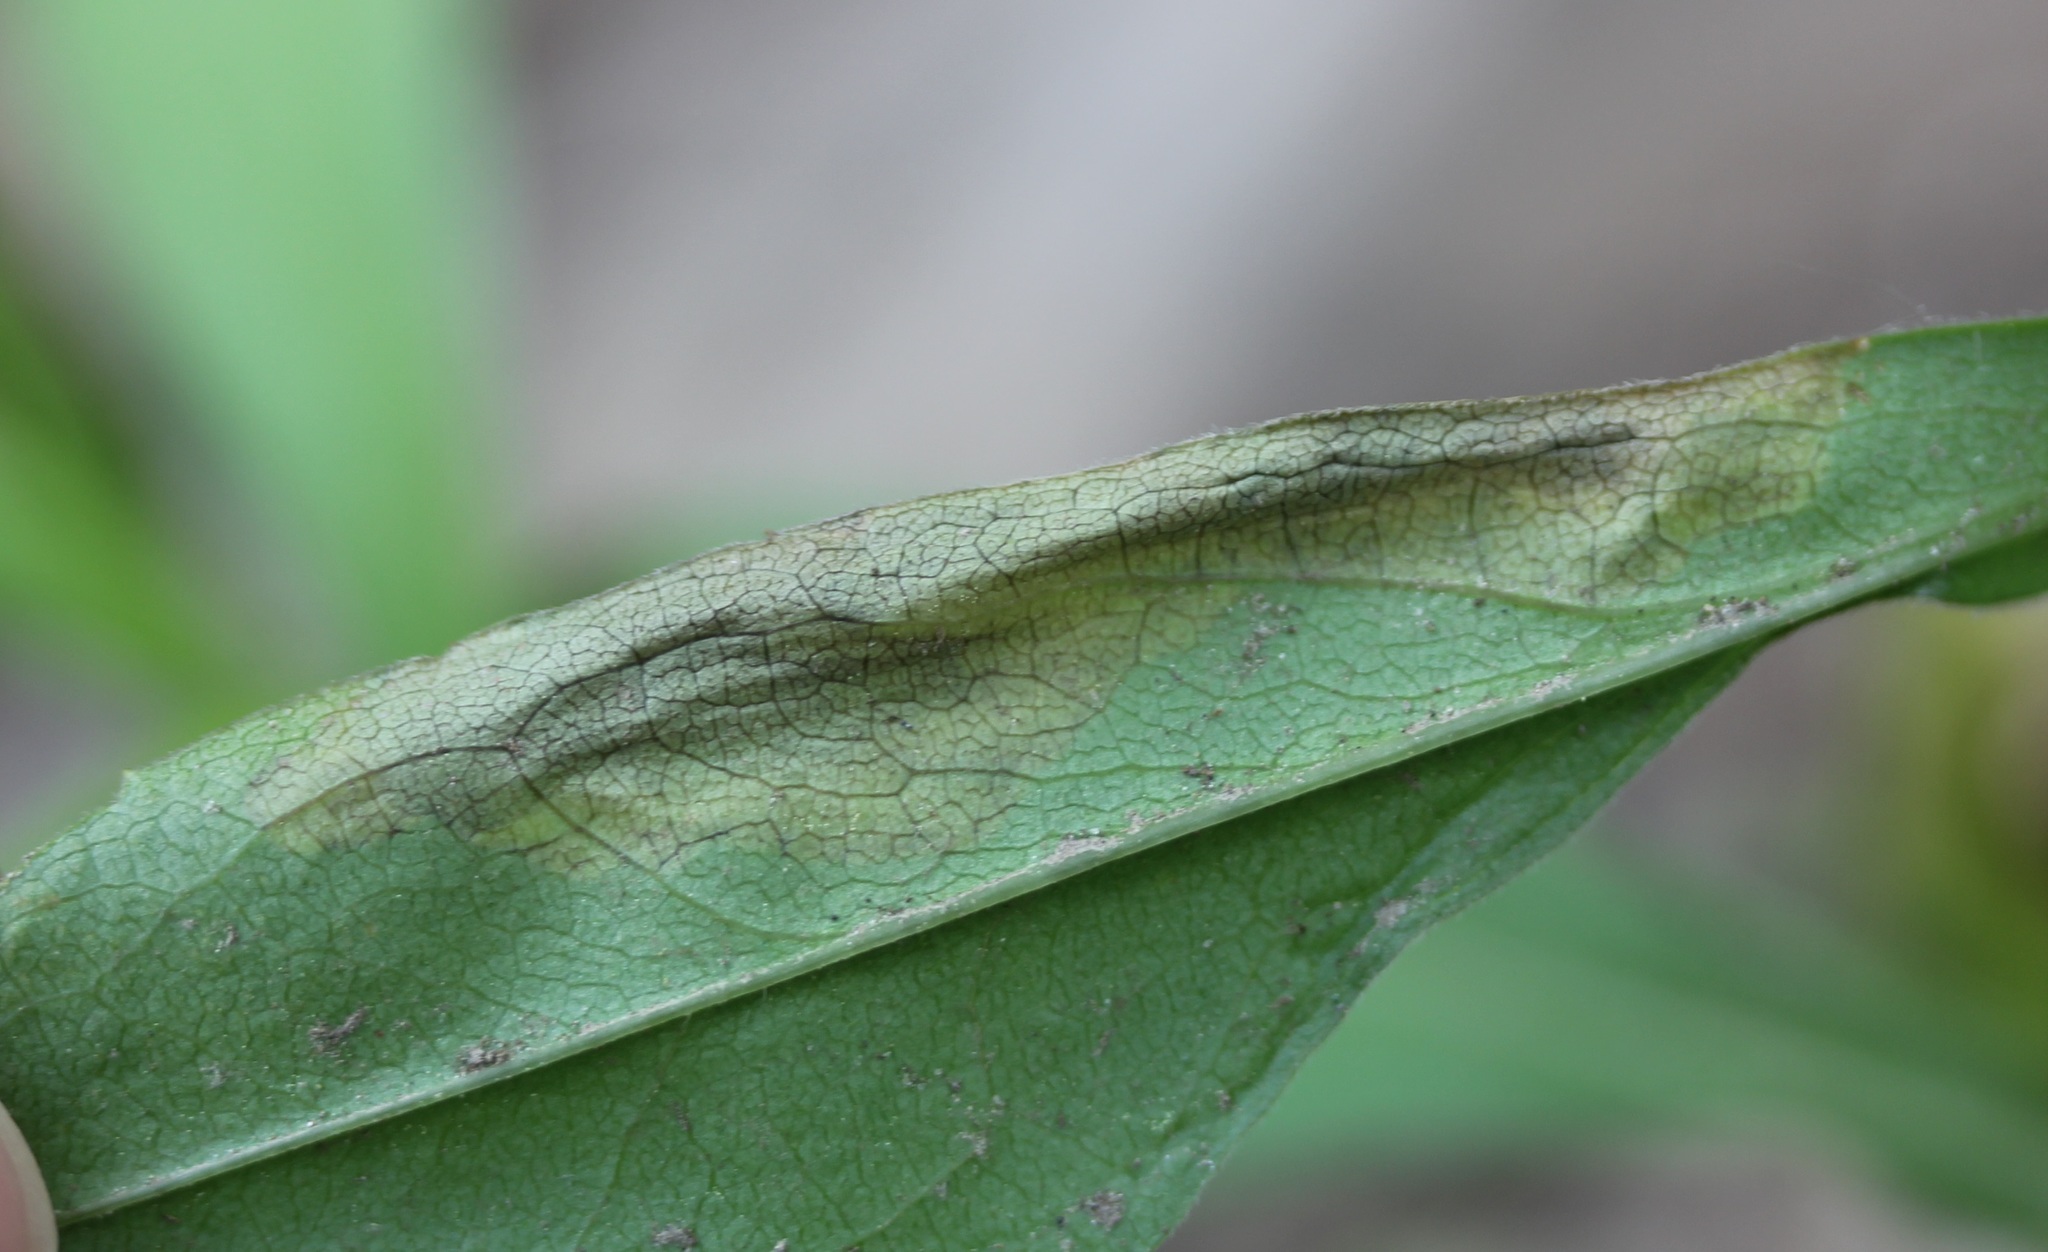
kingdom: Animalia
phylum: Arthropoda
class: Insecta
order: Diptera
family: Agromyzidae
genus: Nemorimyza
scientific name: Nemorimyza posticata
